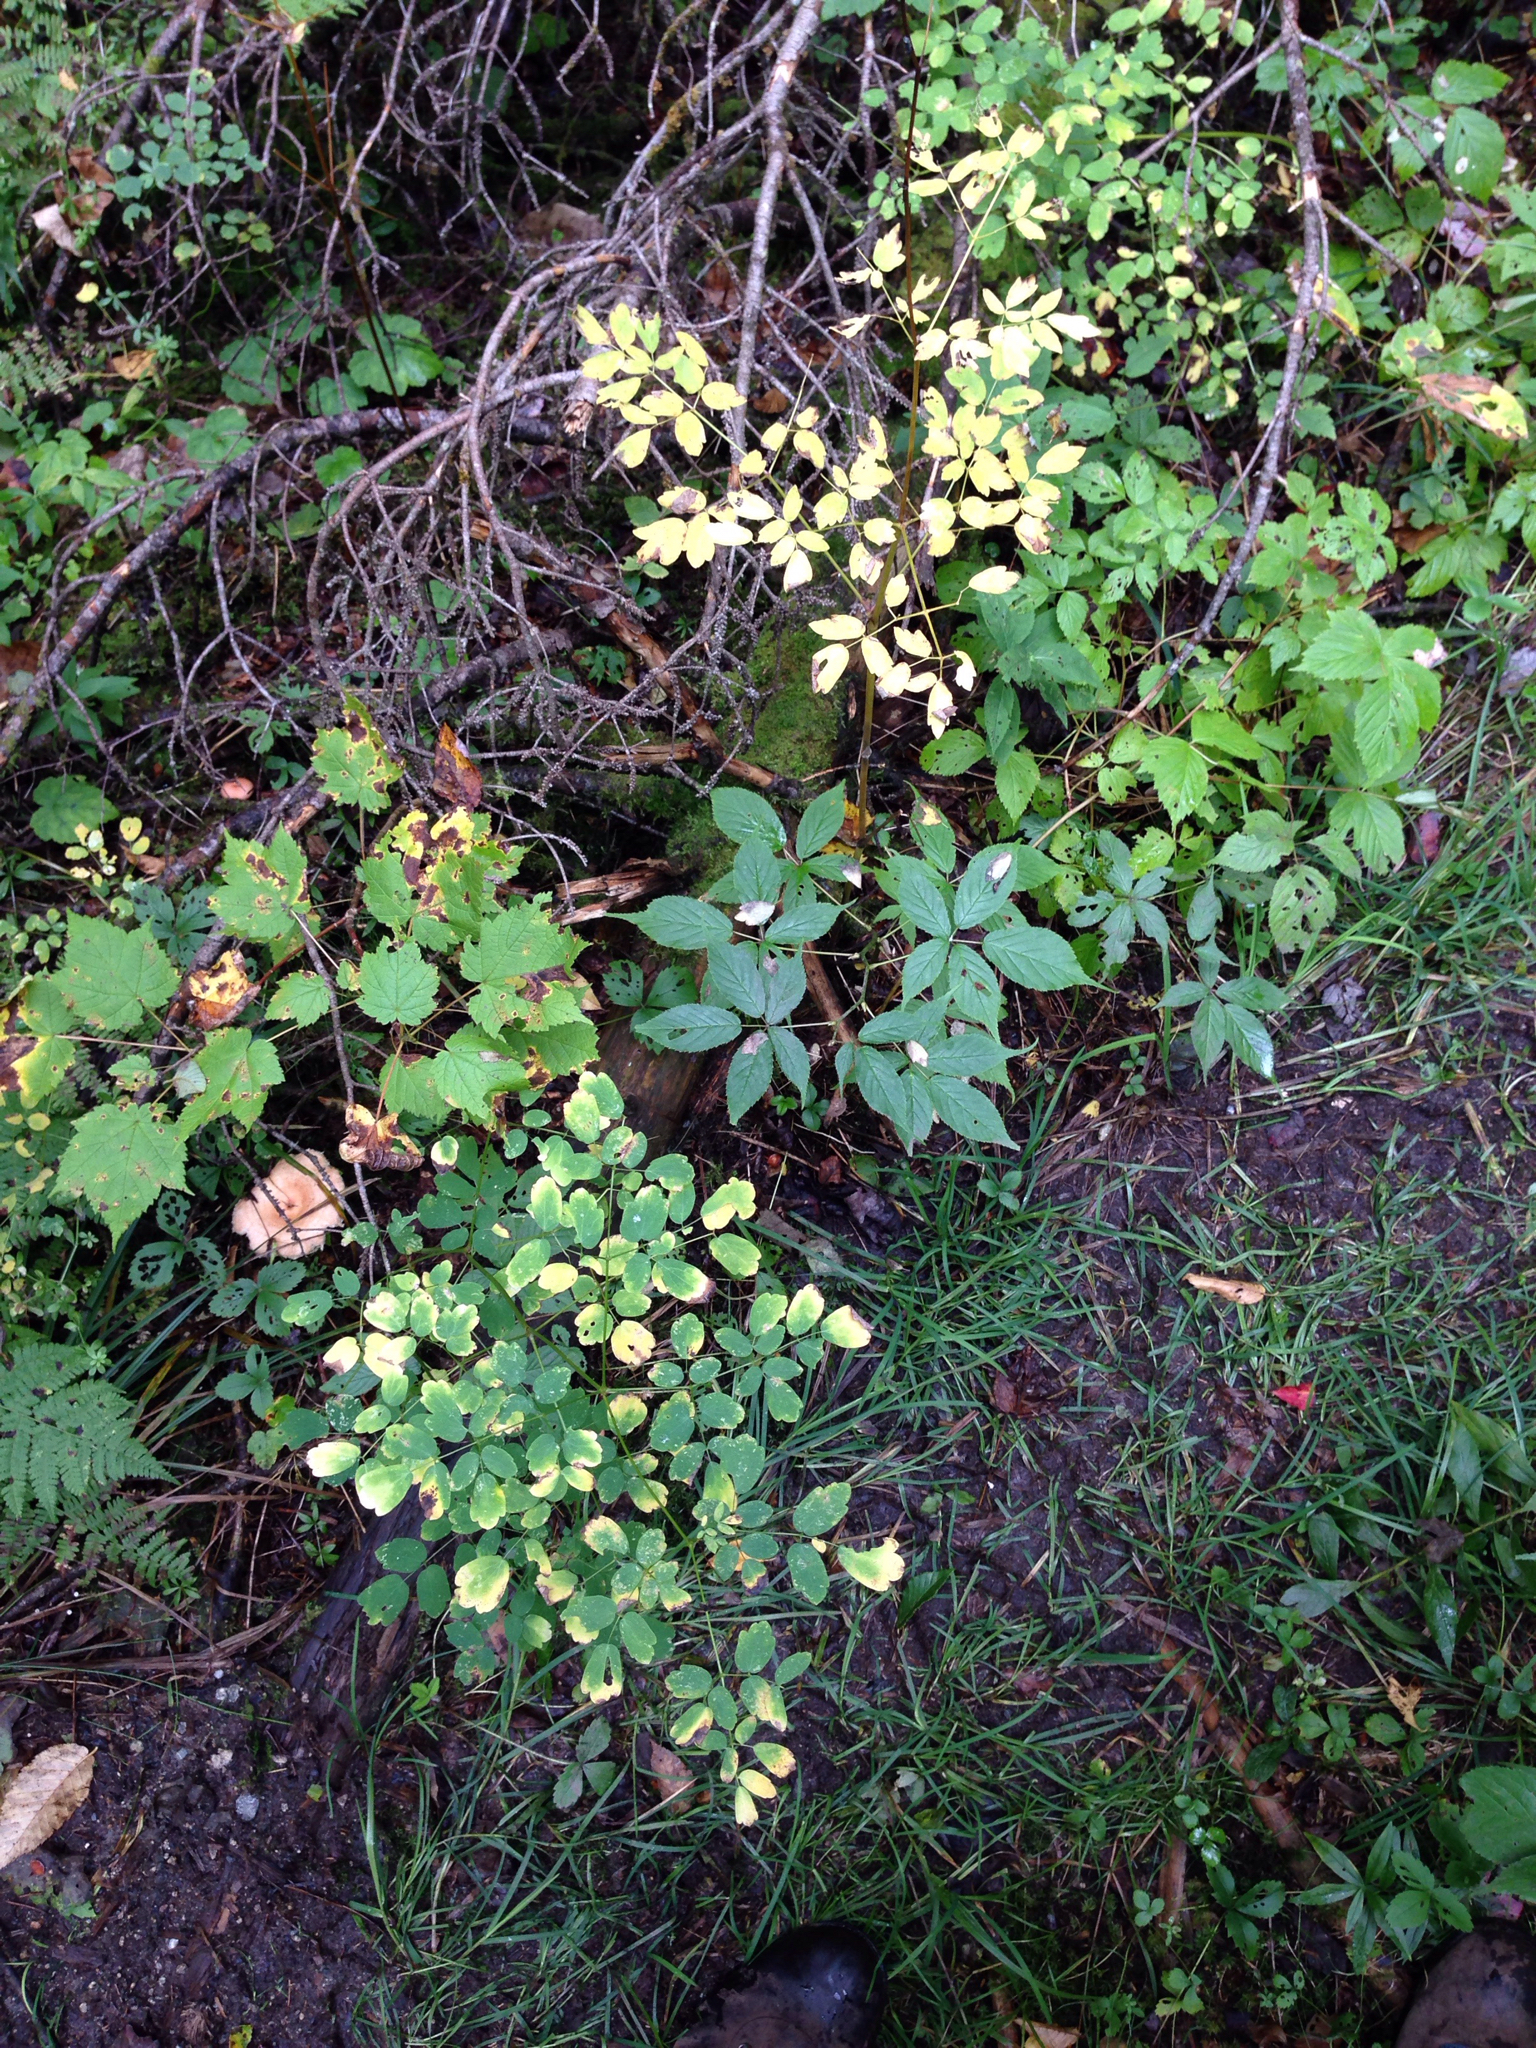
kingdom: Plantae
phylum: Tracheophyta
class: Magnoliopsida
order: Ranunculales
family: Ranunculaceae
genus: Thalictrum
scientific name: Thalictrum pubescens
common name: King-of-the-meadow
